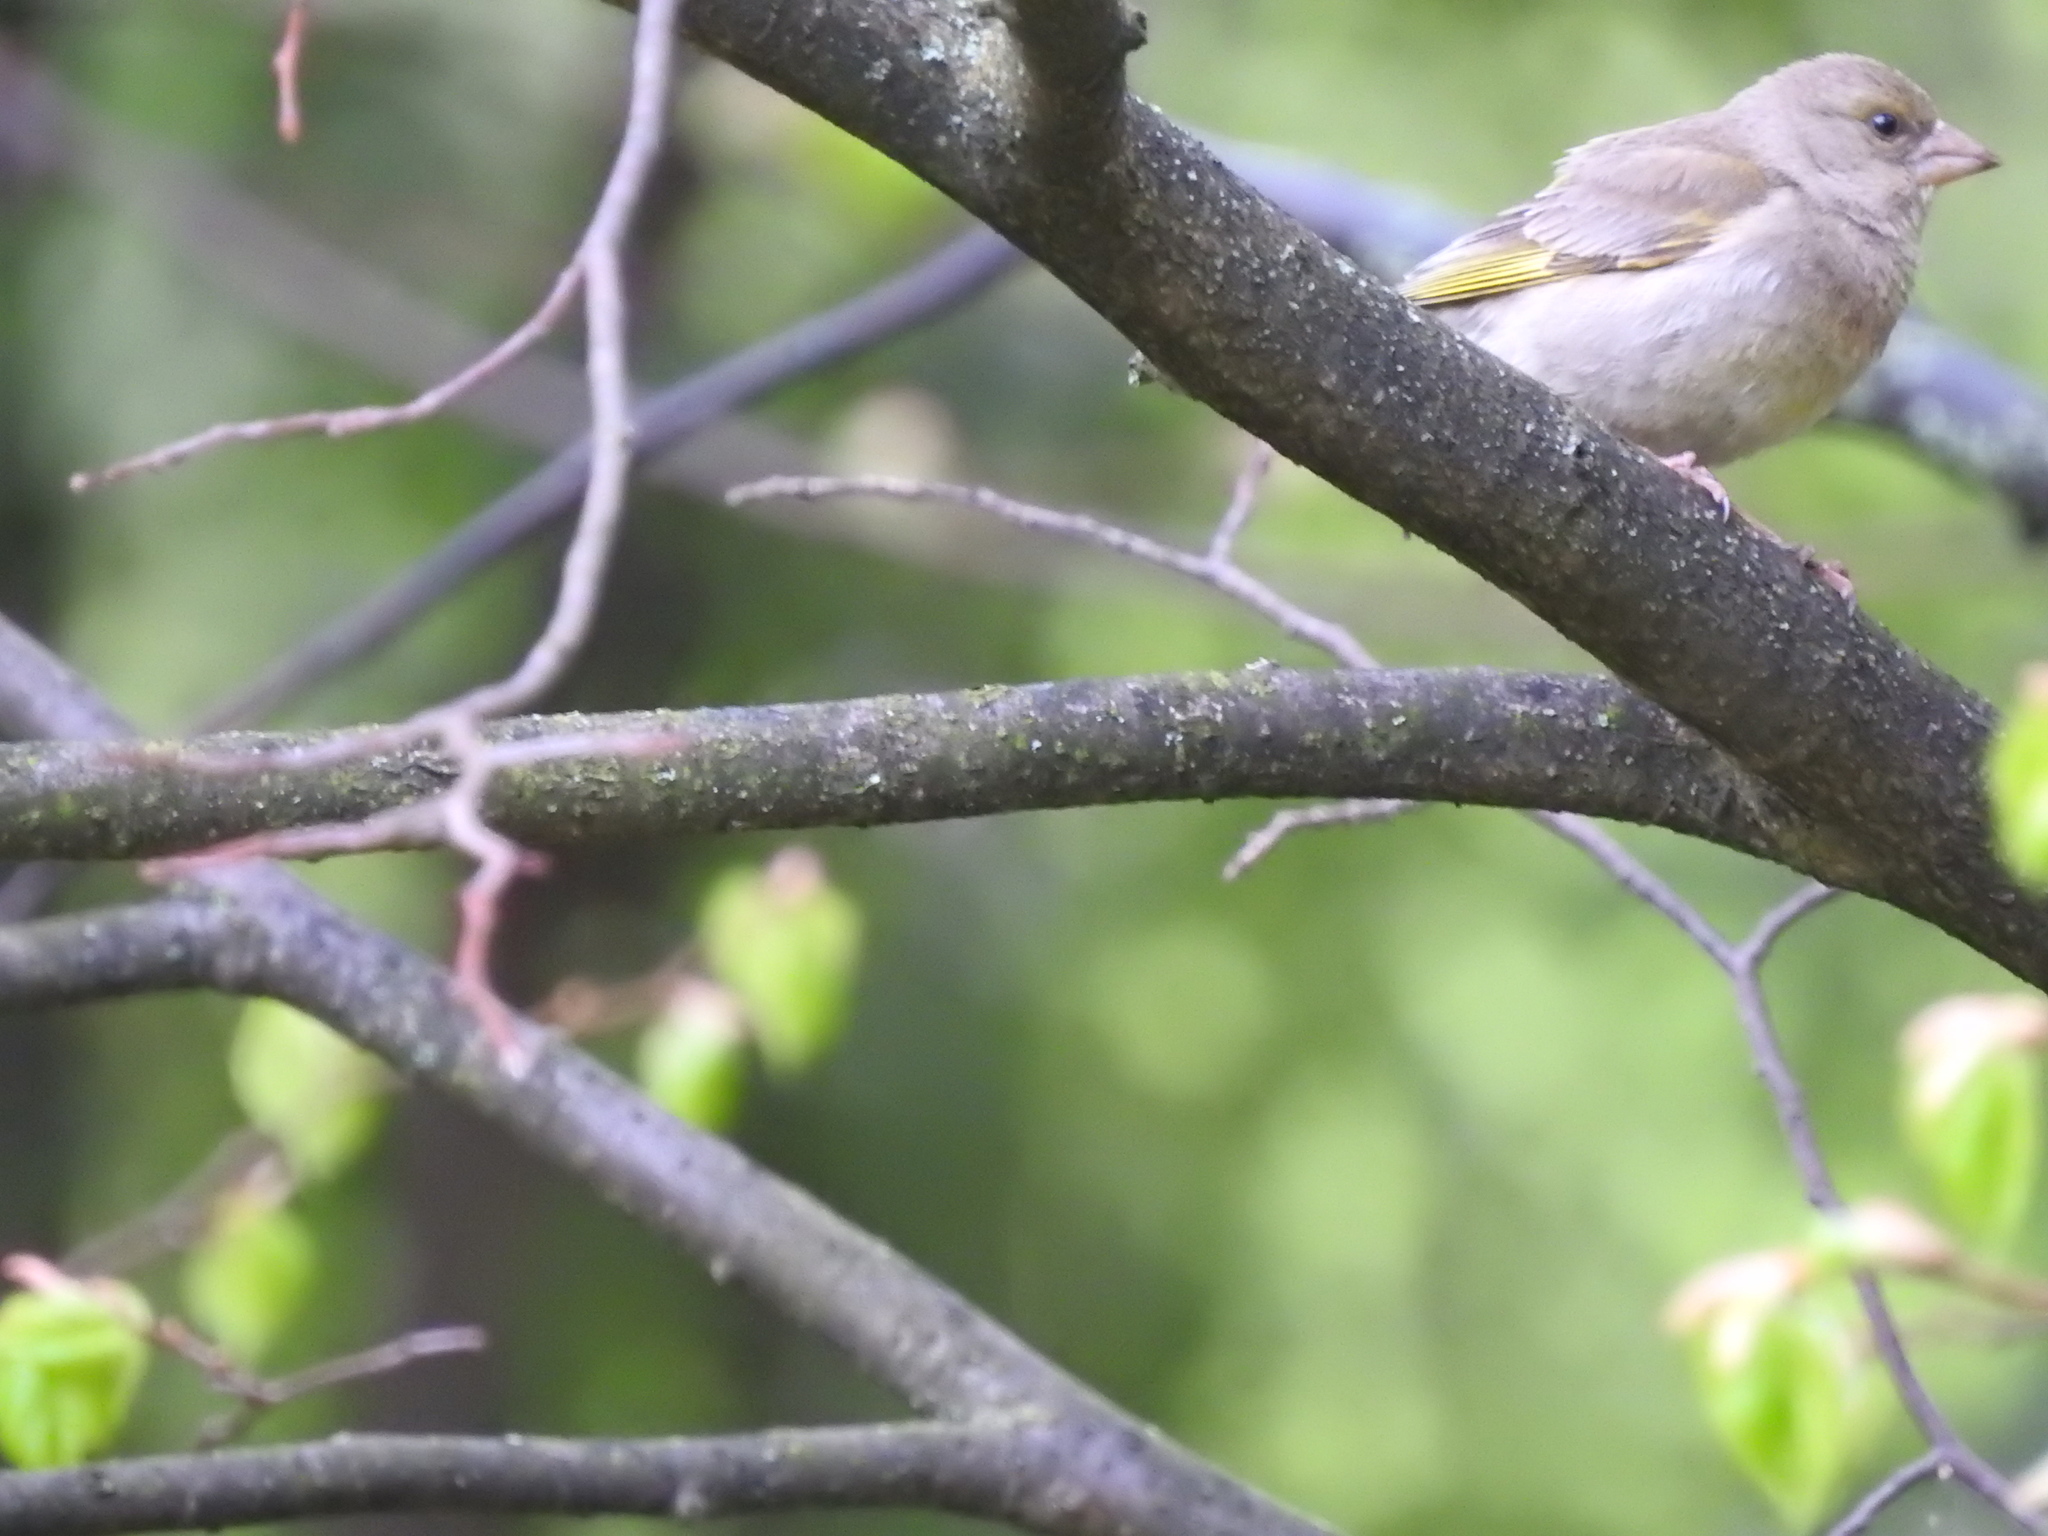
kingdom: Plantae
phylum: Tracheophyta
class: Liliopsida
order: Poales
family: Poaceae
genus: Chloris
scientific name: Chloris chloris
